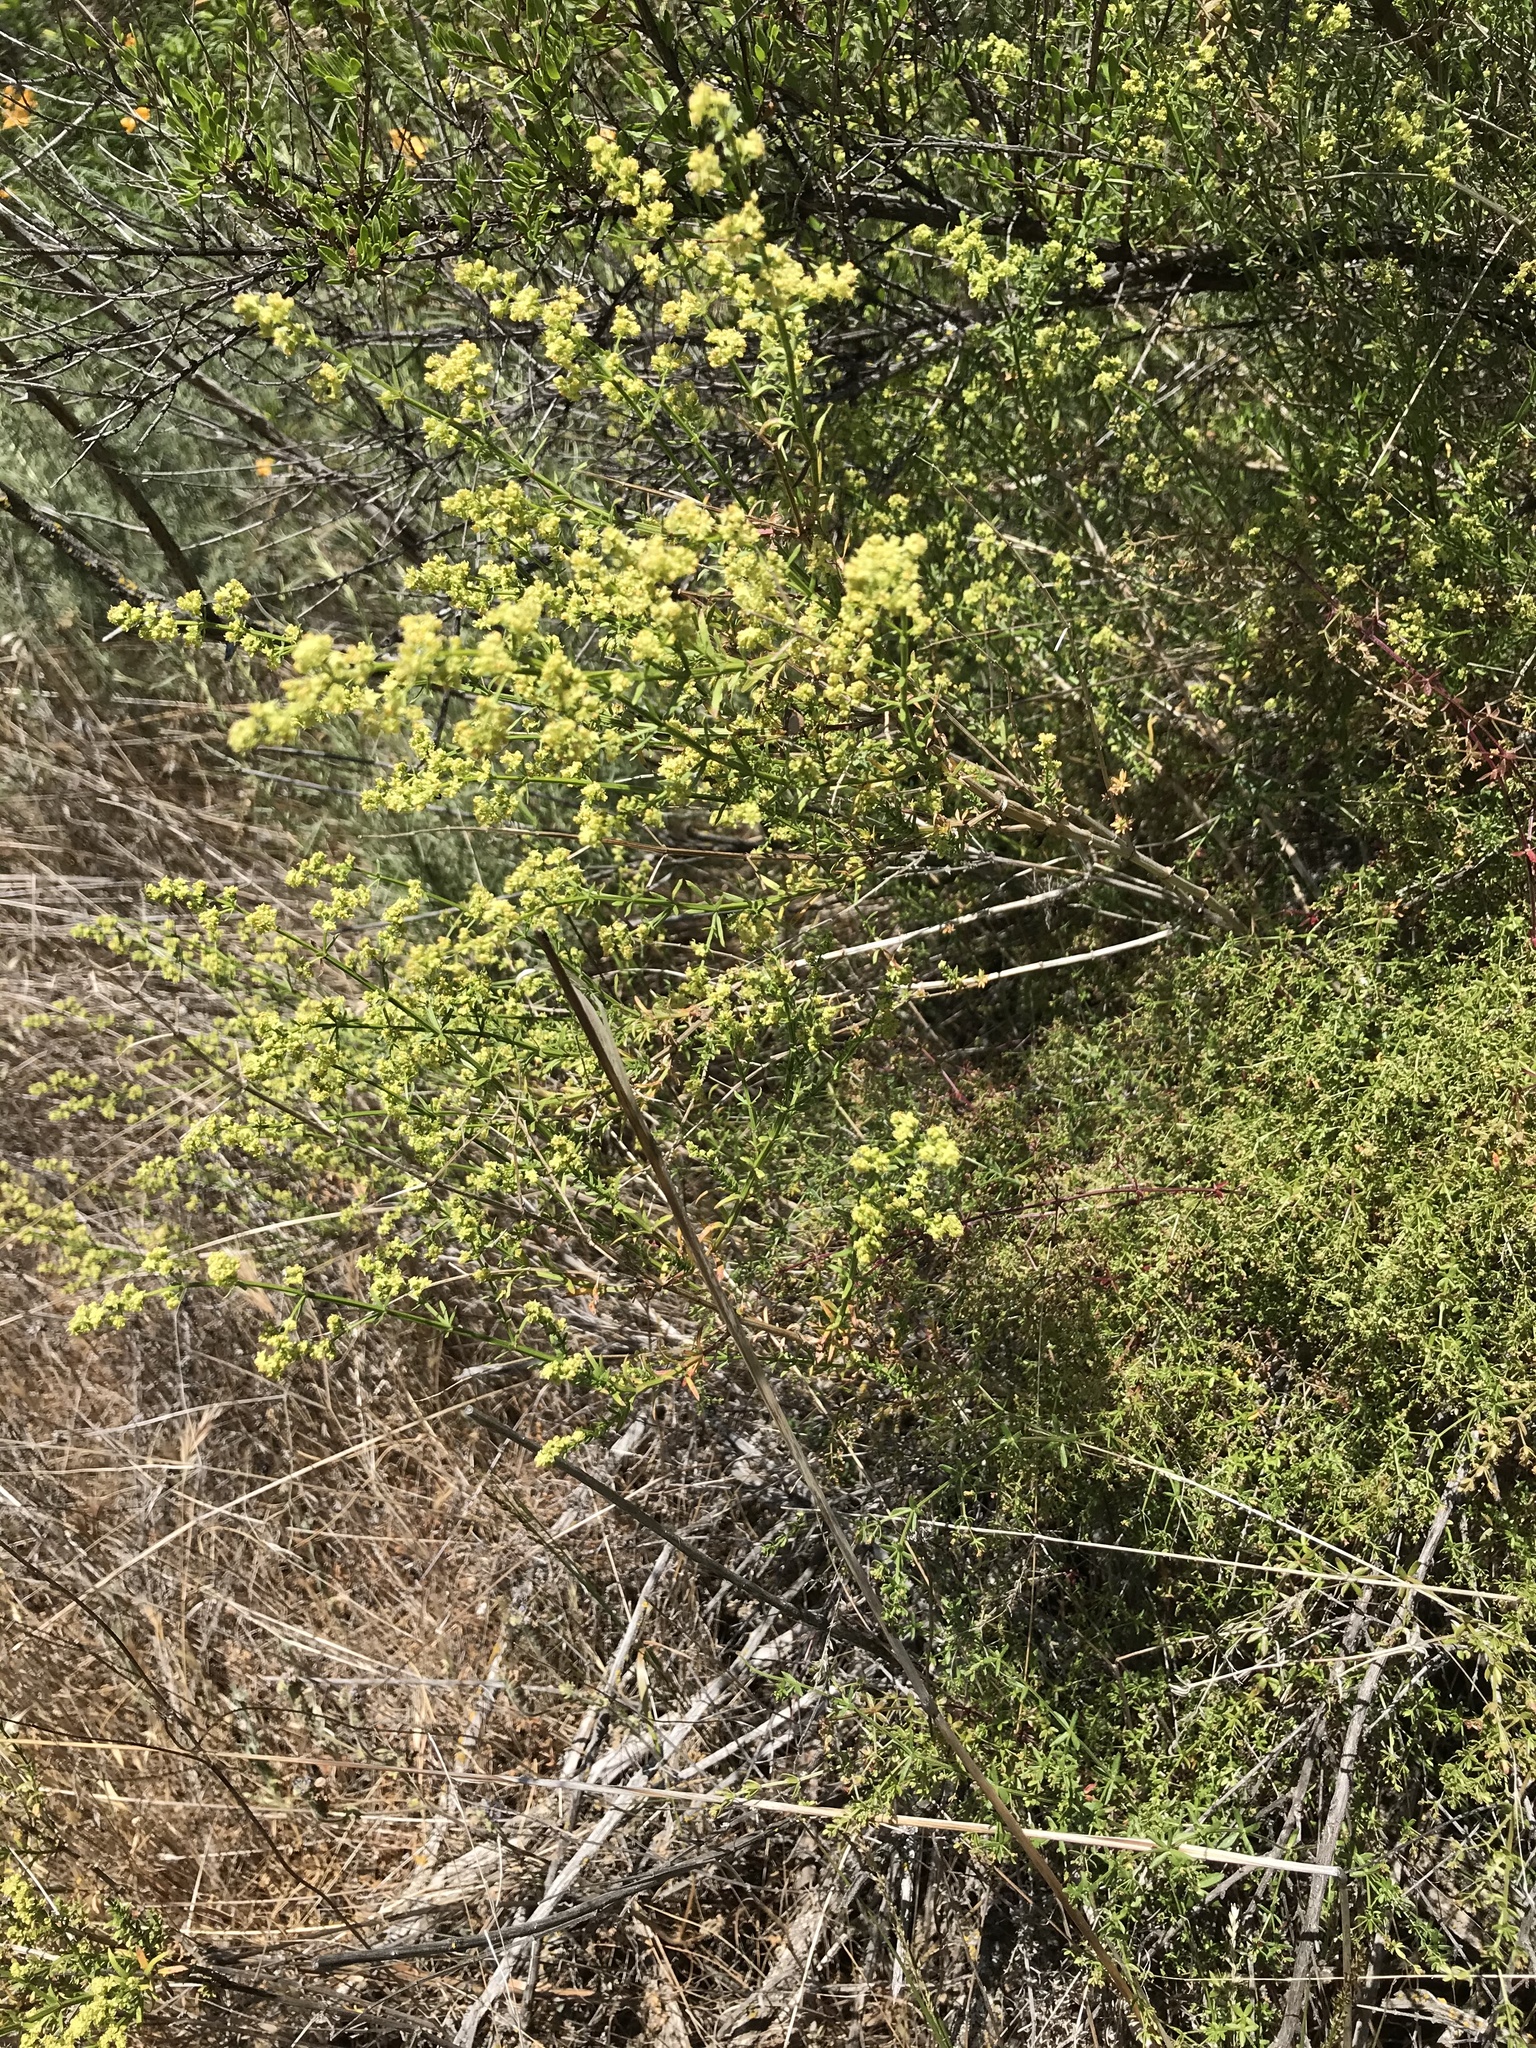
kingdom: Plantae
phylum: Tracheophyta
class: Magnoliopsida
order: Gentianales
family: Rubiaceae
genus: Galium
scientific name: Galium angustifolium
